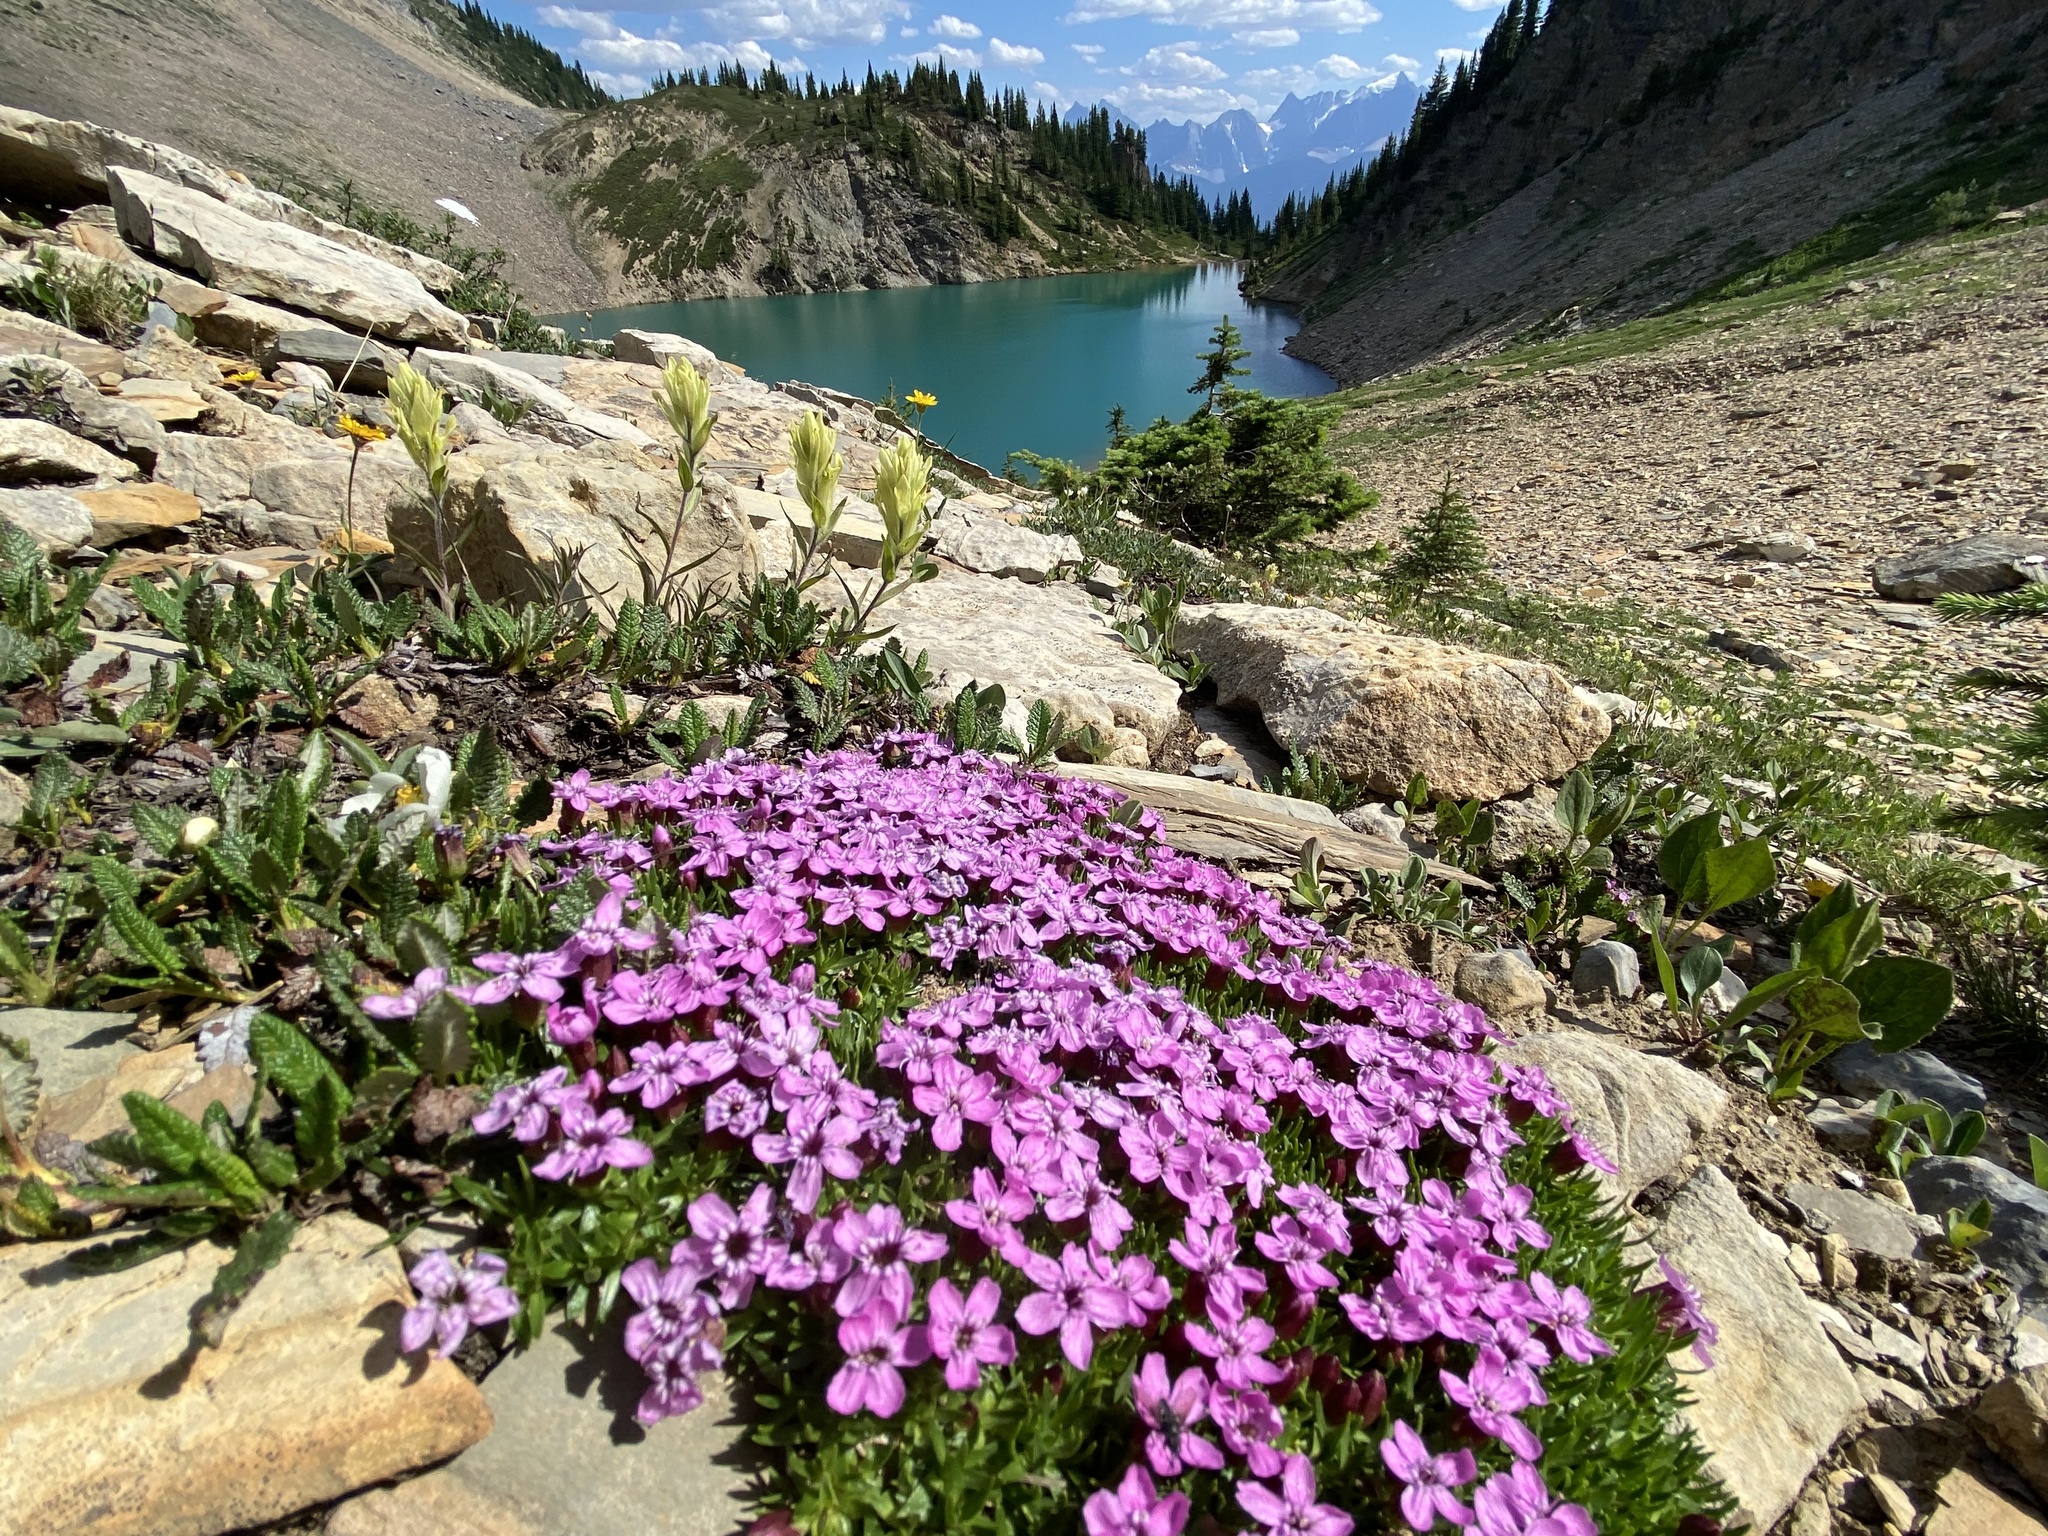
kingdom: Plantae
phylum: Tracheophyta
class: Magnoliopsida
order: Caryophyllales
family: Caryophyllaceae
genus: Silene
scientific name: Silene acaulis
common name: Moss campion
